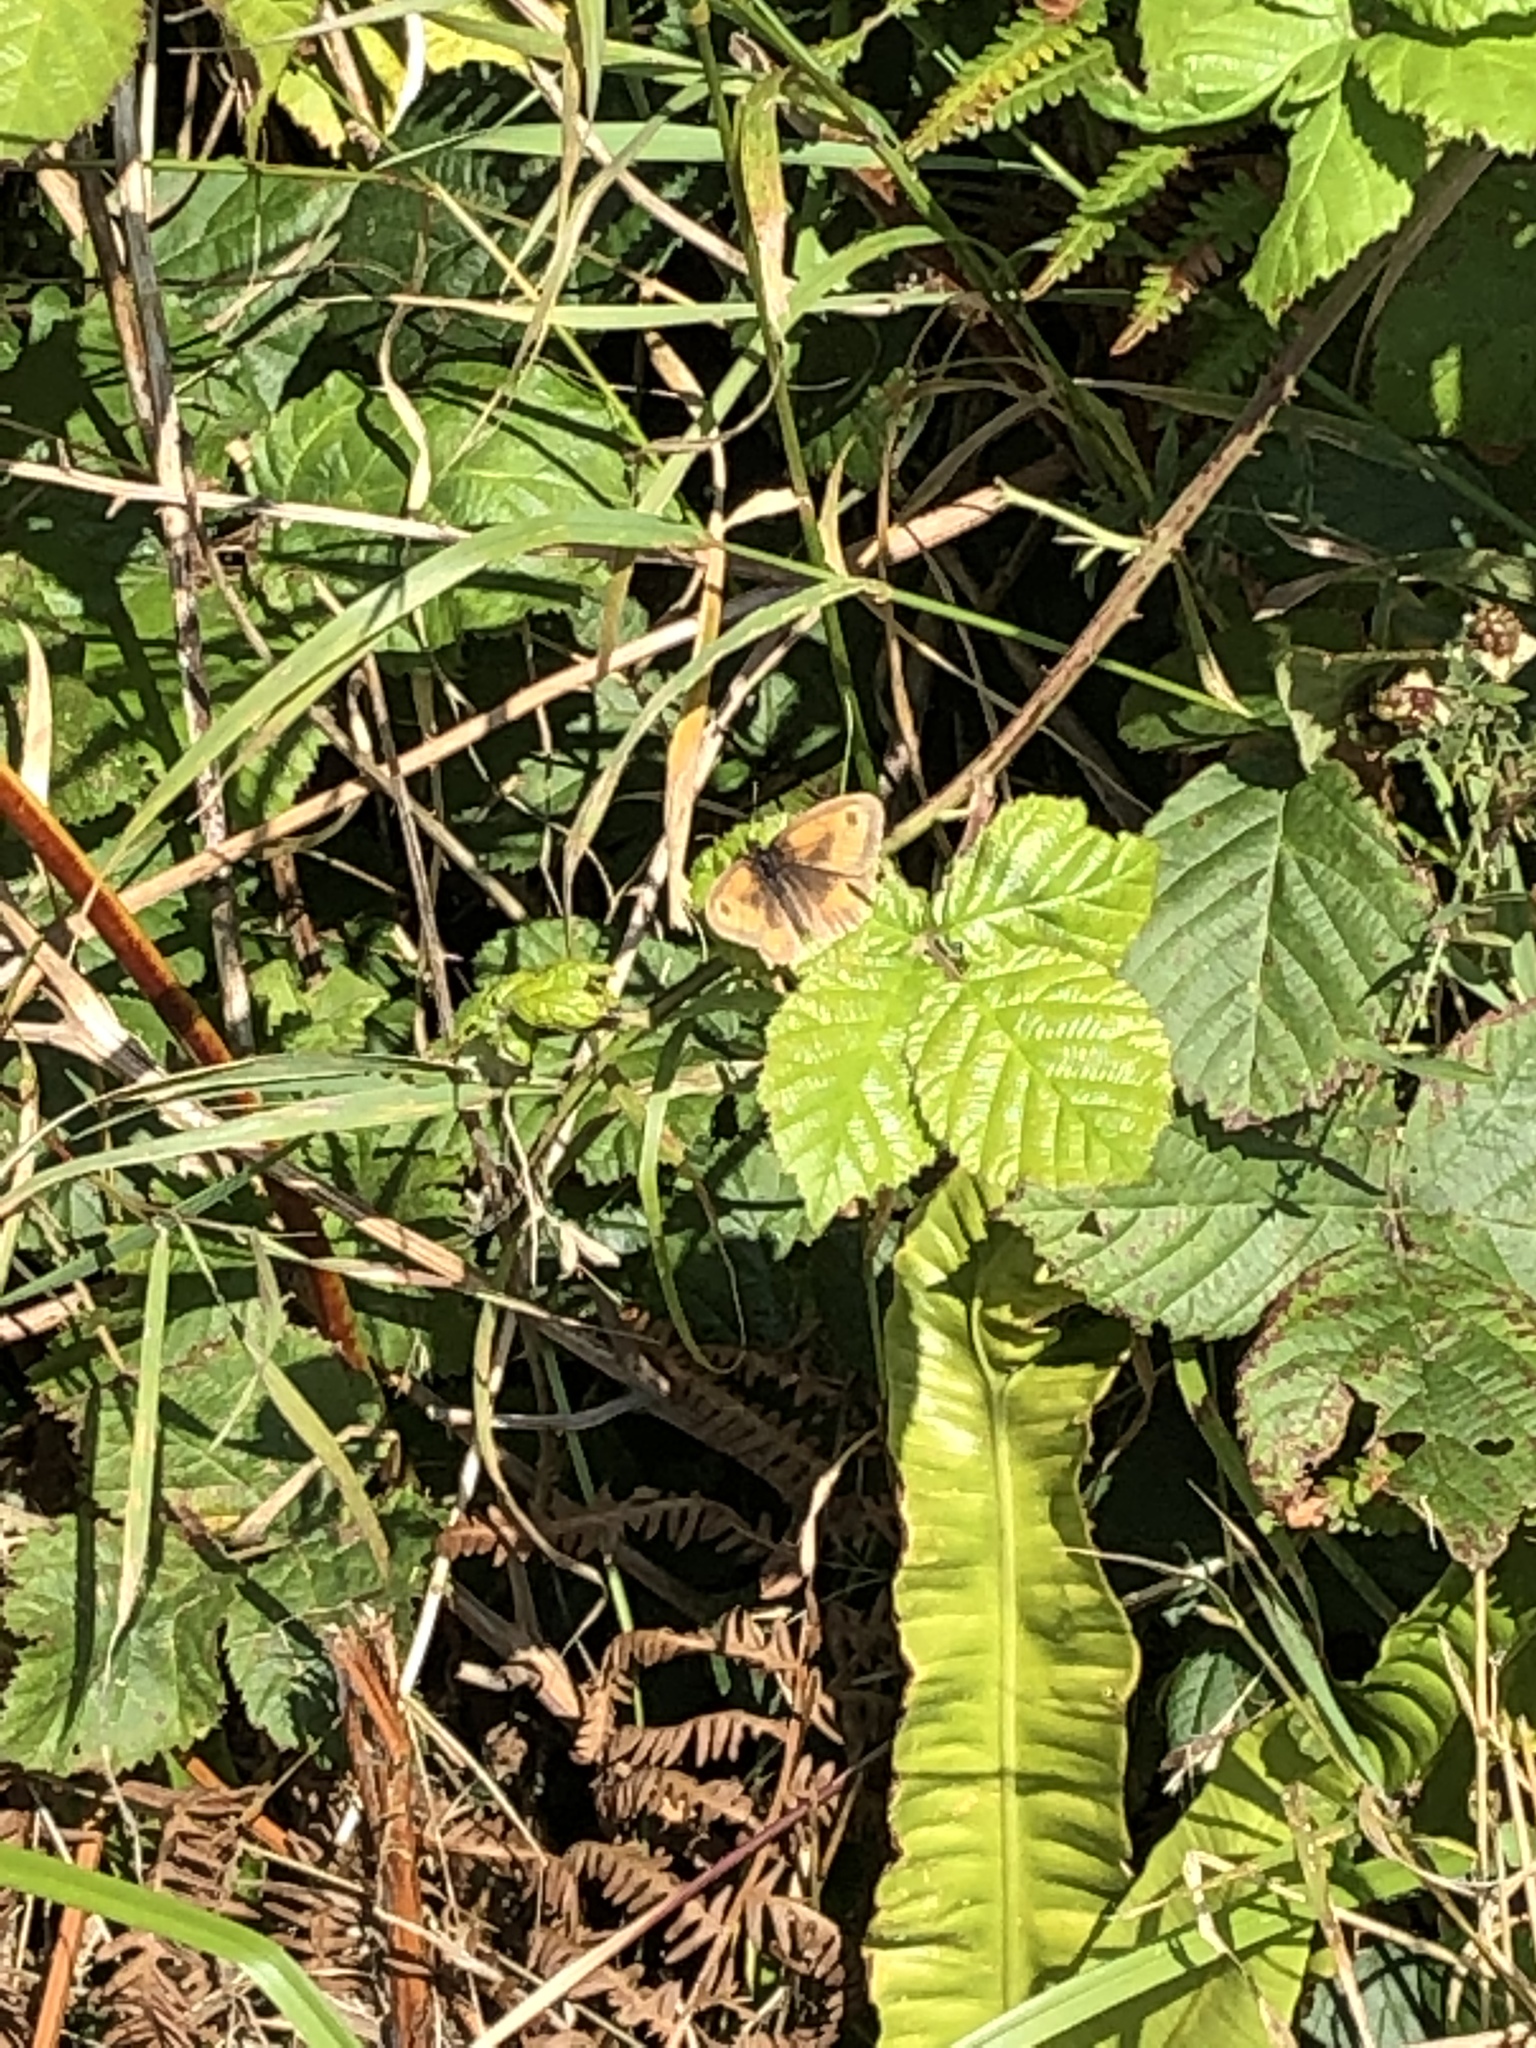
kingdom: Animalia
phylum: Arthropoda
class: Insecta
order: Lepidoptera
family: Nymphalidae
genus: Pyronia
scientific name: Pyronia tithonus
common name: Gatekeeper
